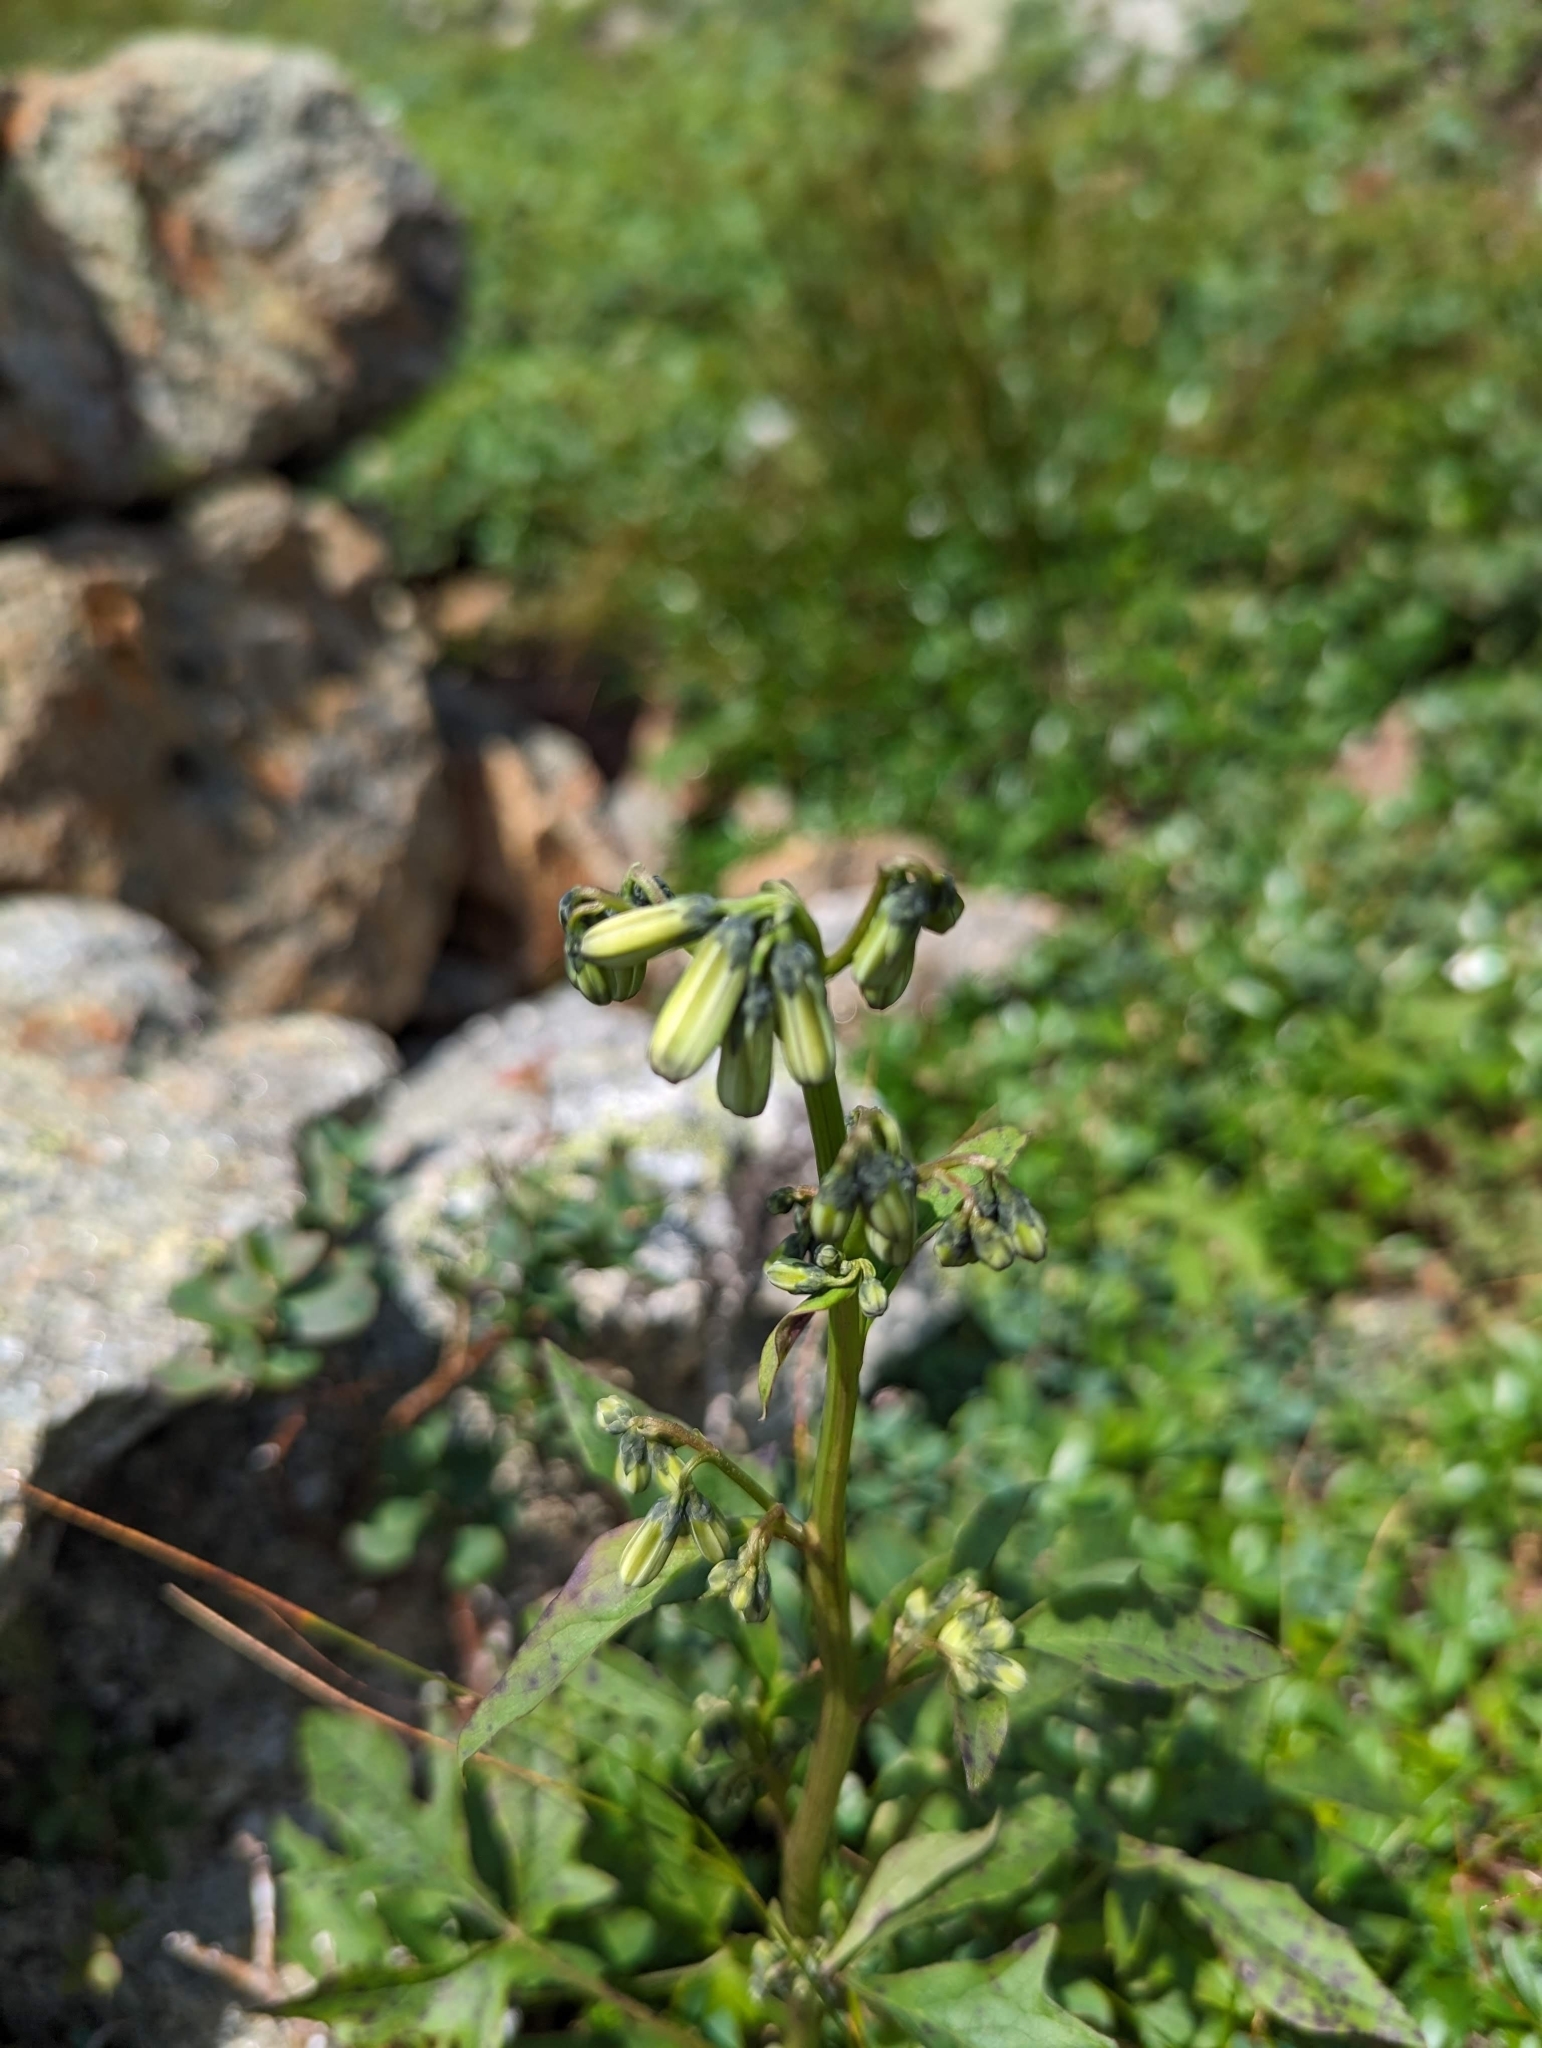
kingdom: Plantae
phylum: Tracheophyta
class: Magnoliopsida
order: Asterales
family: Asteraceae
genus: Nabalus
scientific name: Nabalus trifoliolatus
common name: Gall-of-the-earth
